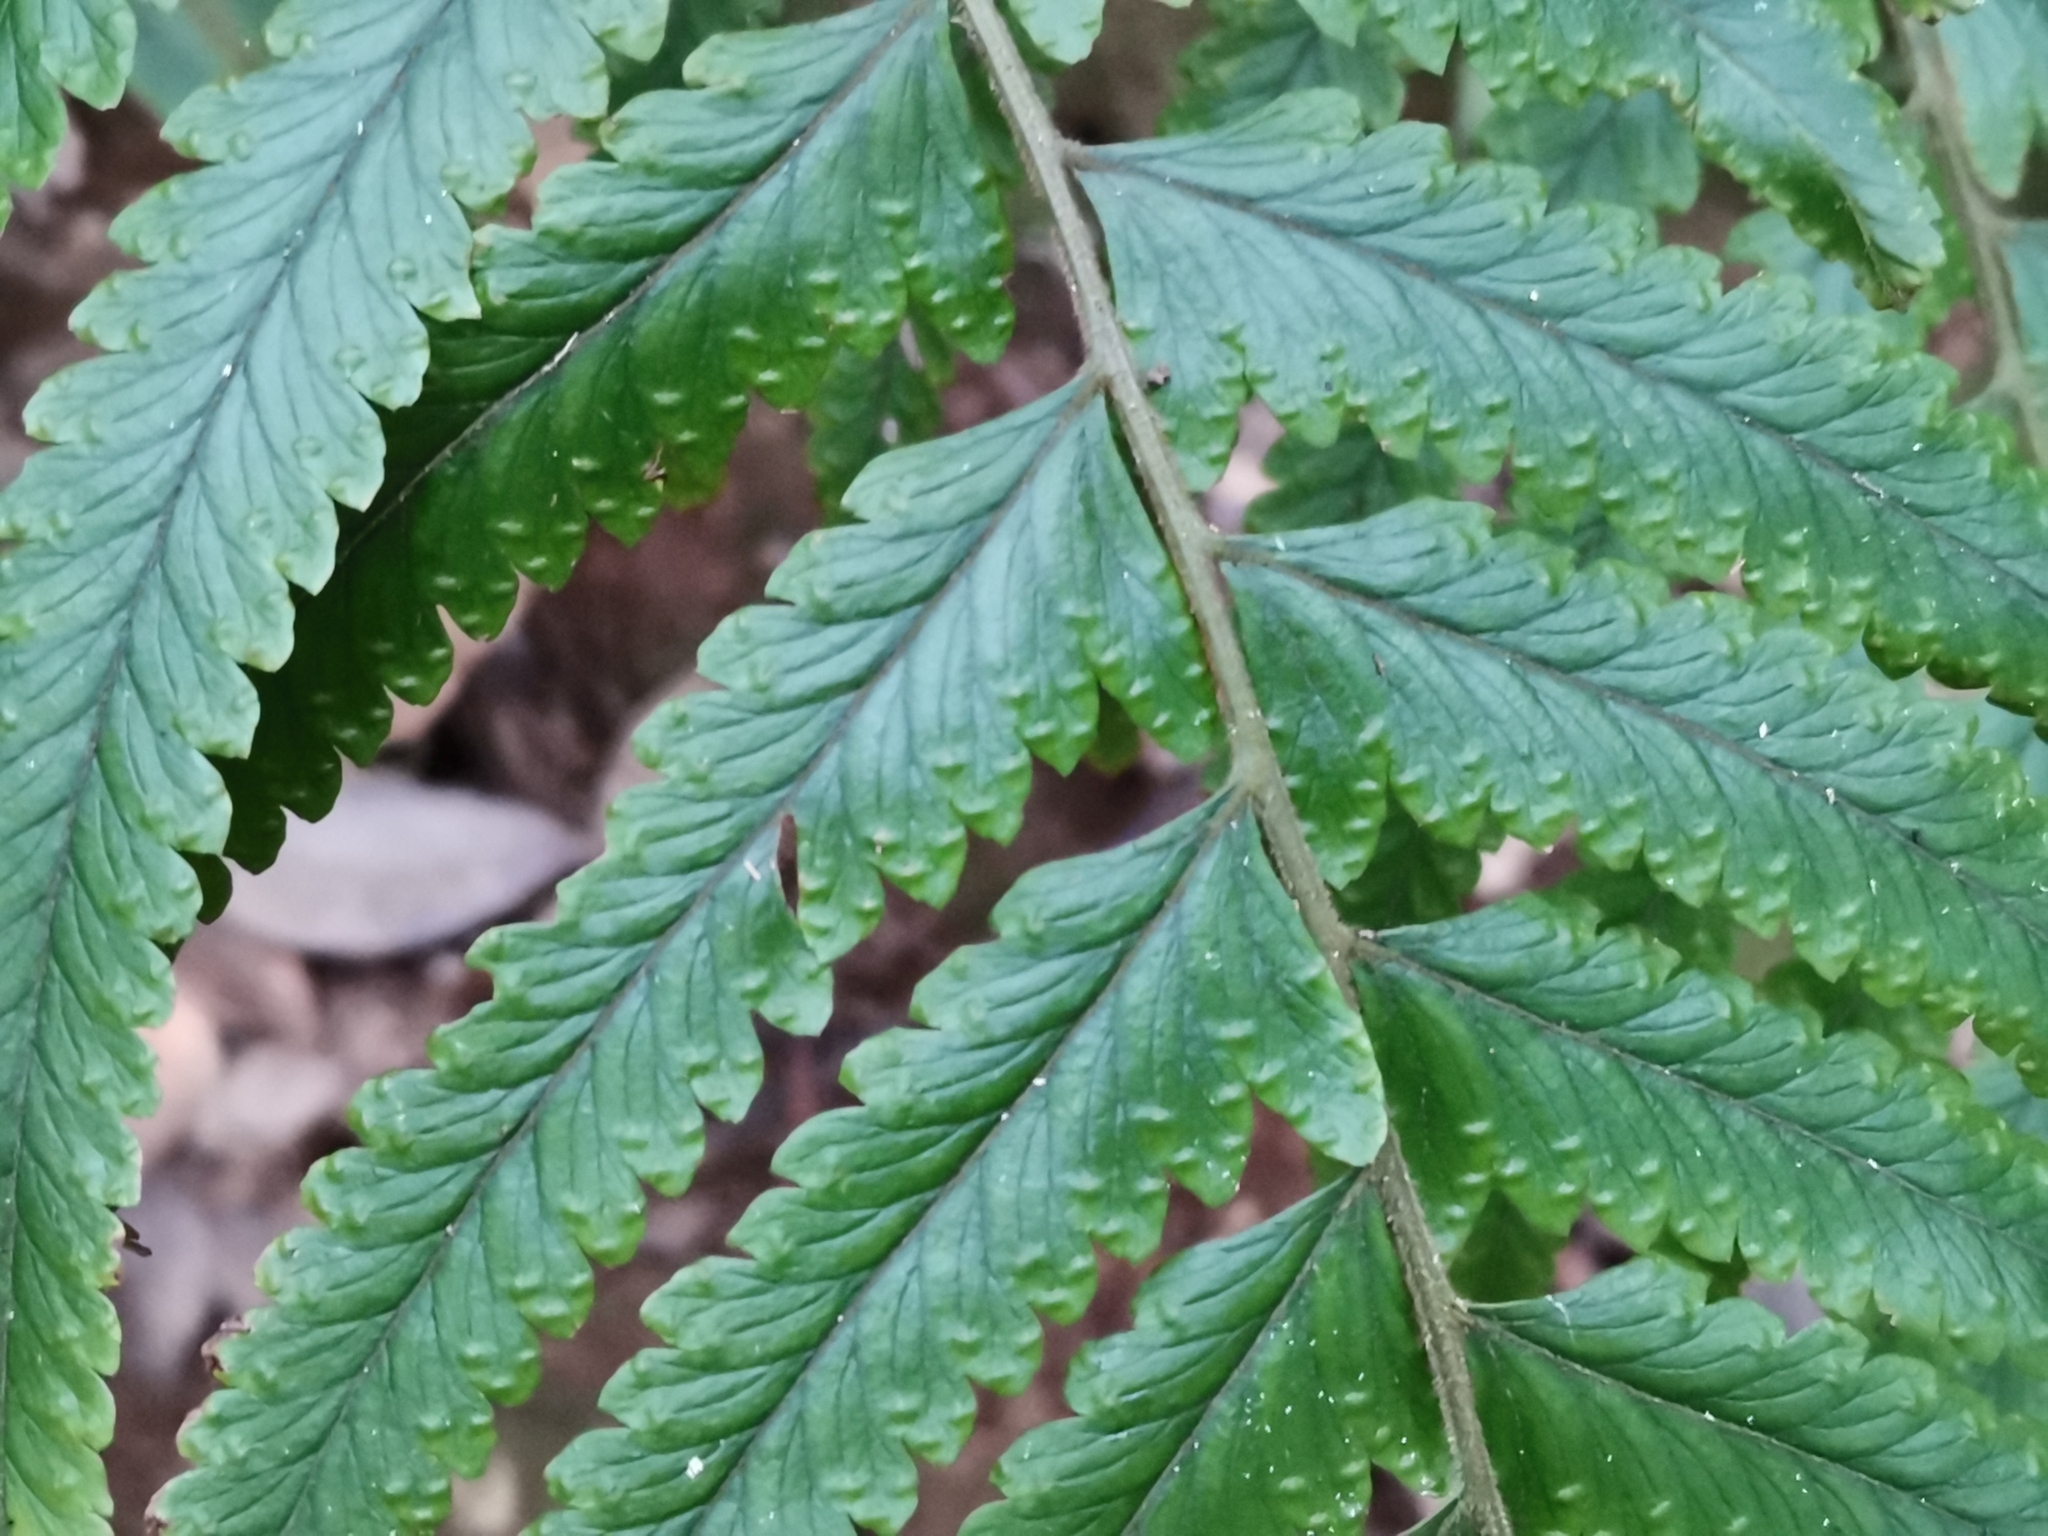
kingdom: Plantae
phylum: Tracheophyta
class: Polypodiopsida
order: Polypodiales
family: Dennstaedtiaceae
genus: Microlepia
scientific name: Microlepia marginata
